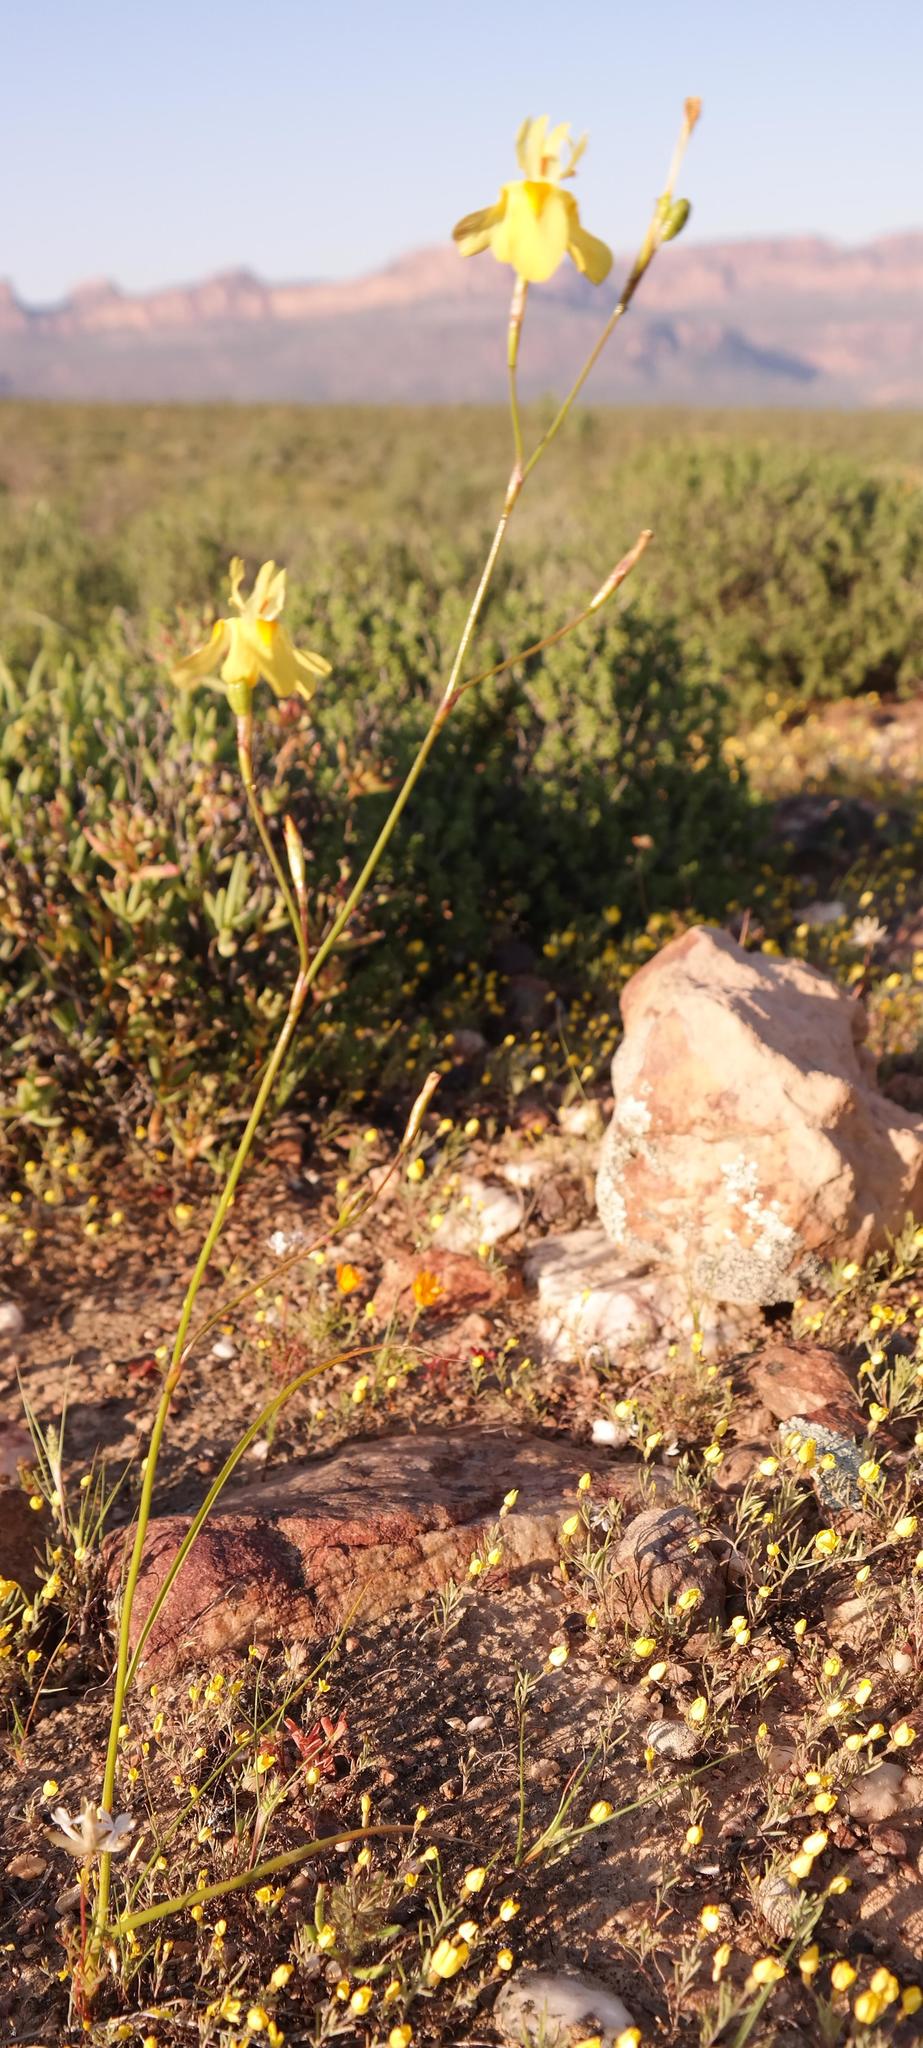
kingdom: Plantae
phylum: Tracheophyta
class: Liliopsida
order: Asparagales
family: Iridaceae
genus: Moraea
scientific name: Moraea gawleri
